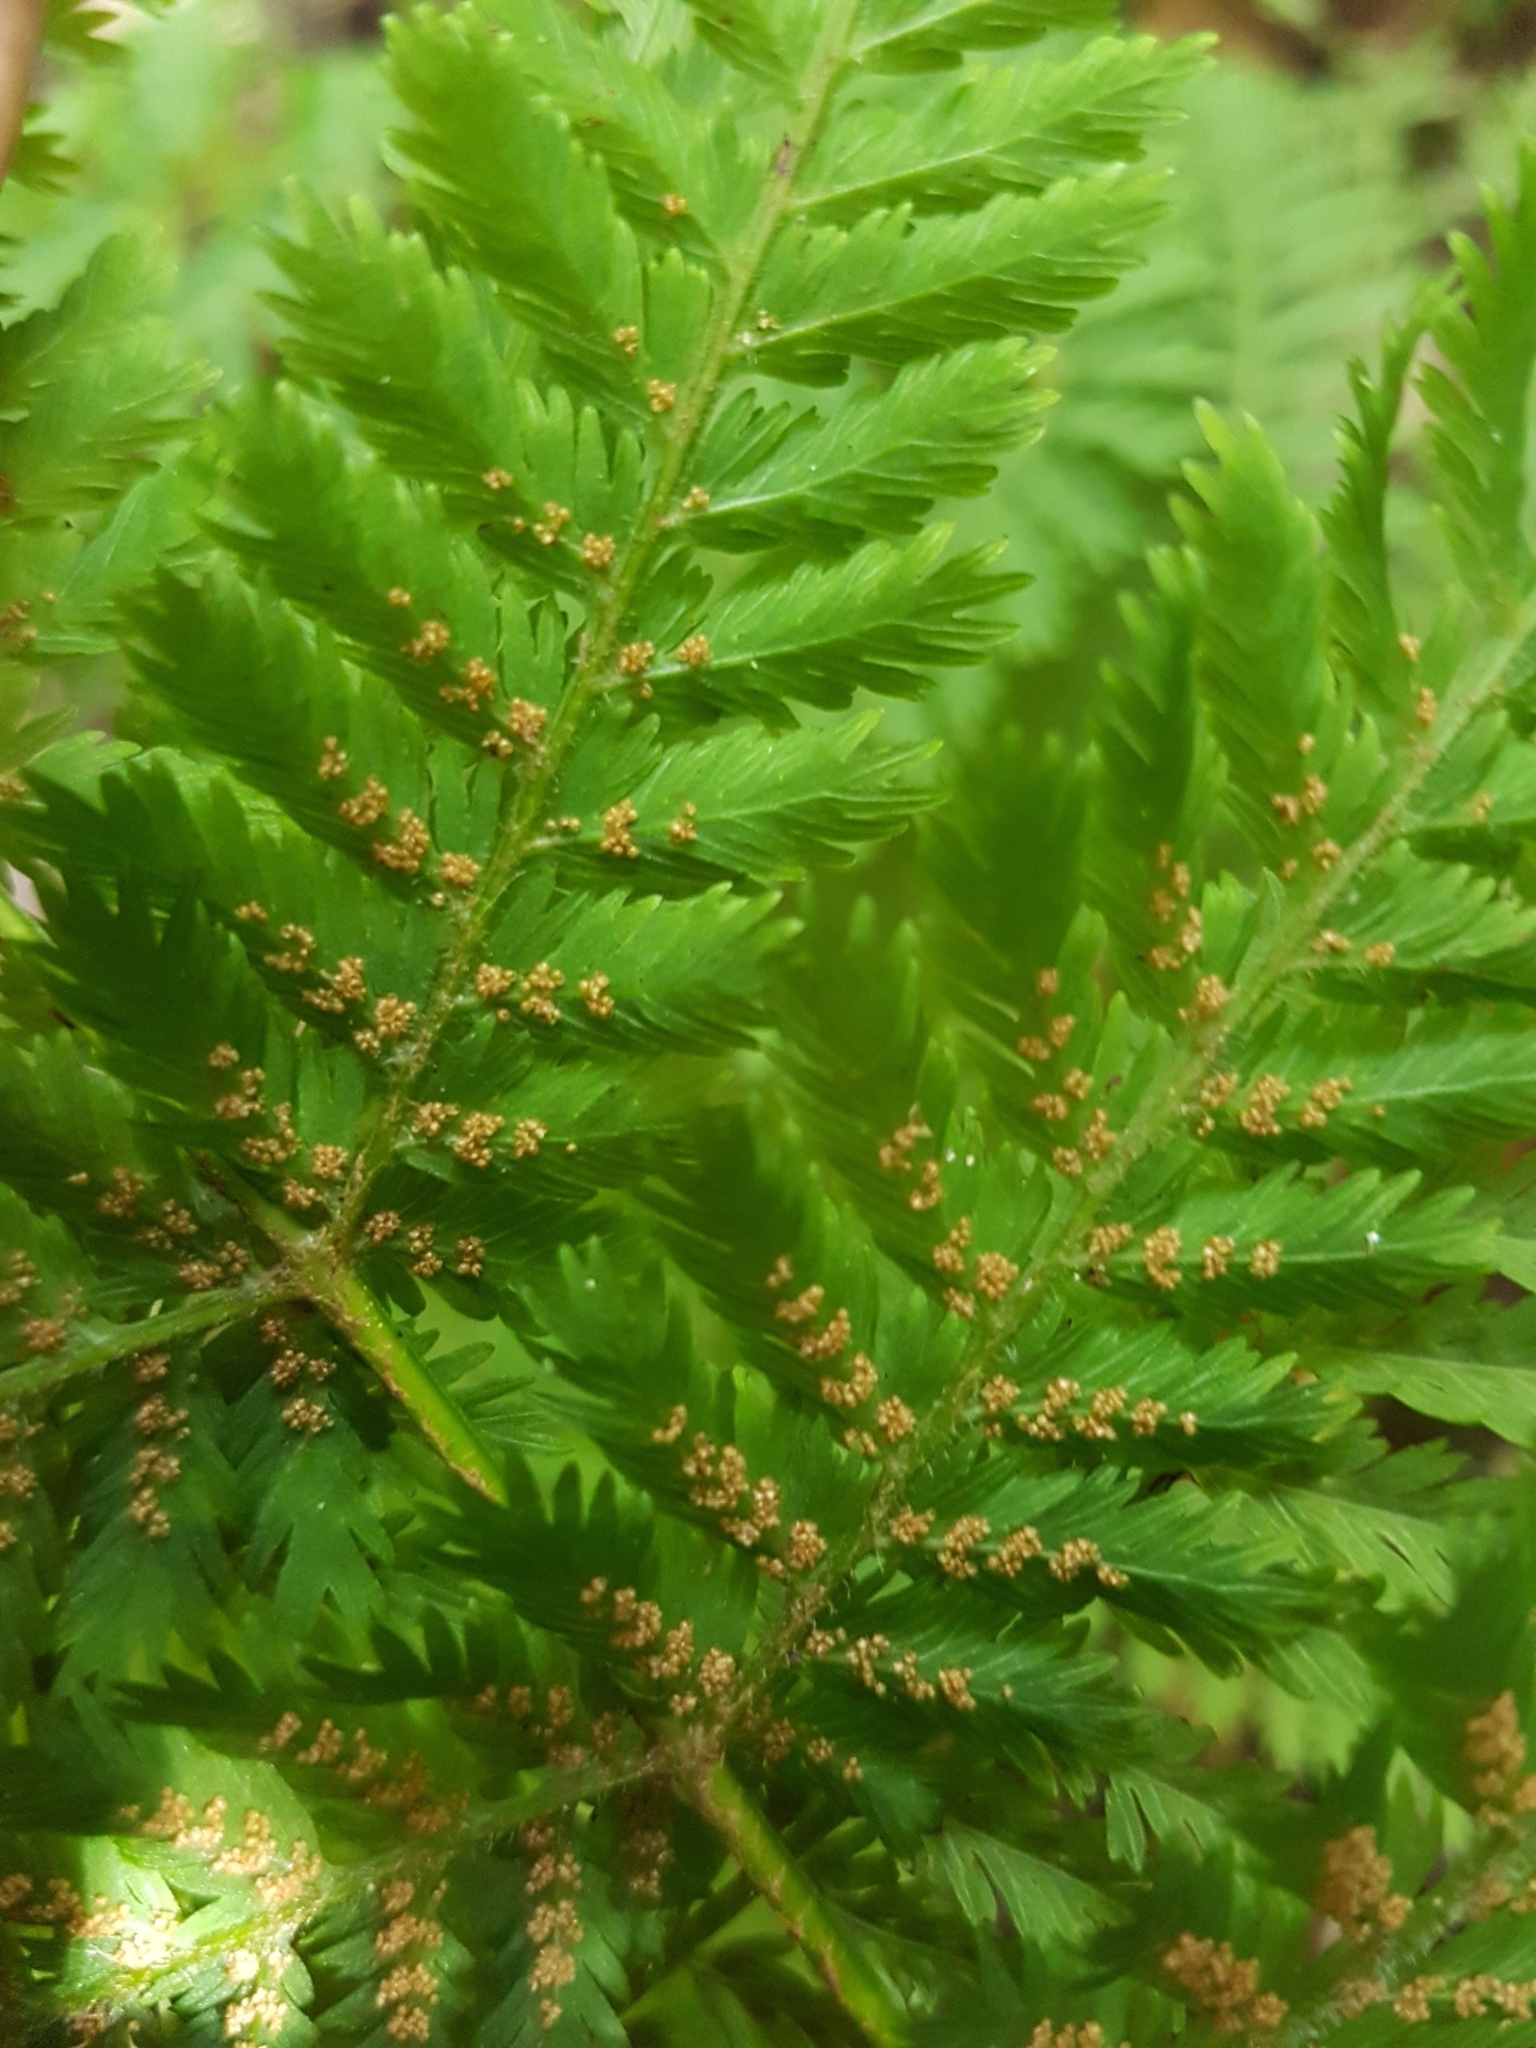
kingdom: Plantae
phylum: Tracheophyta
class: Polypodiopsida
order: Osmundales
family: Osmundaceae
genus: Leptopteris
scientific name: Leptopteris hymenophylloides
